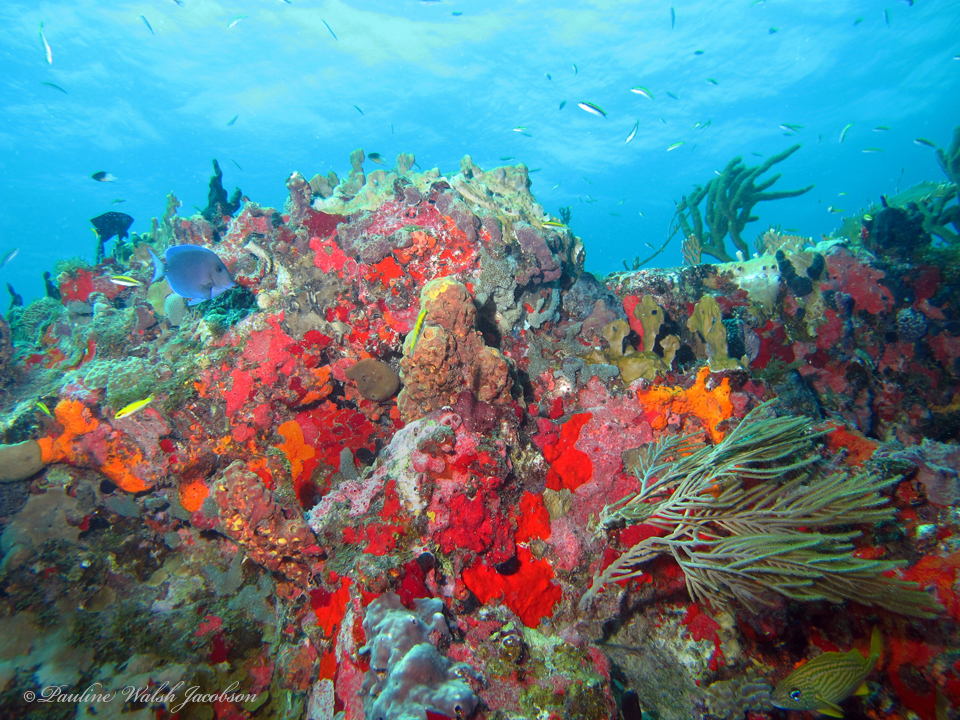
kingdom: Animalia
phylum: Chordata
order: Perciformes
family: Acanthuridae
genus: Acanthurus
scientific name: Acanthurus coeruleus
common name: Blue tang
